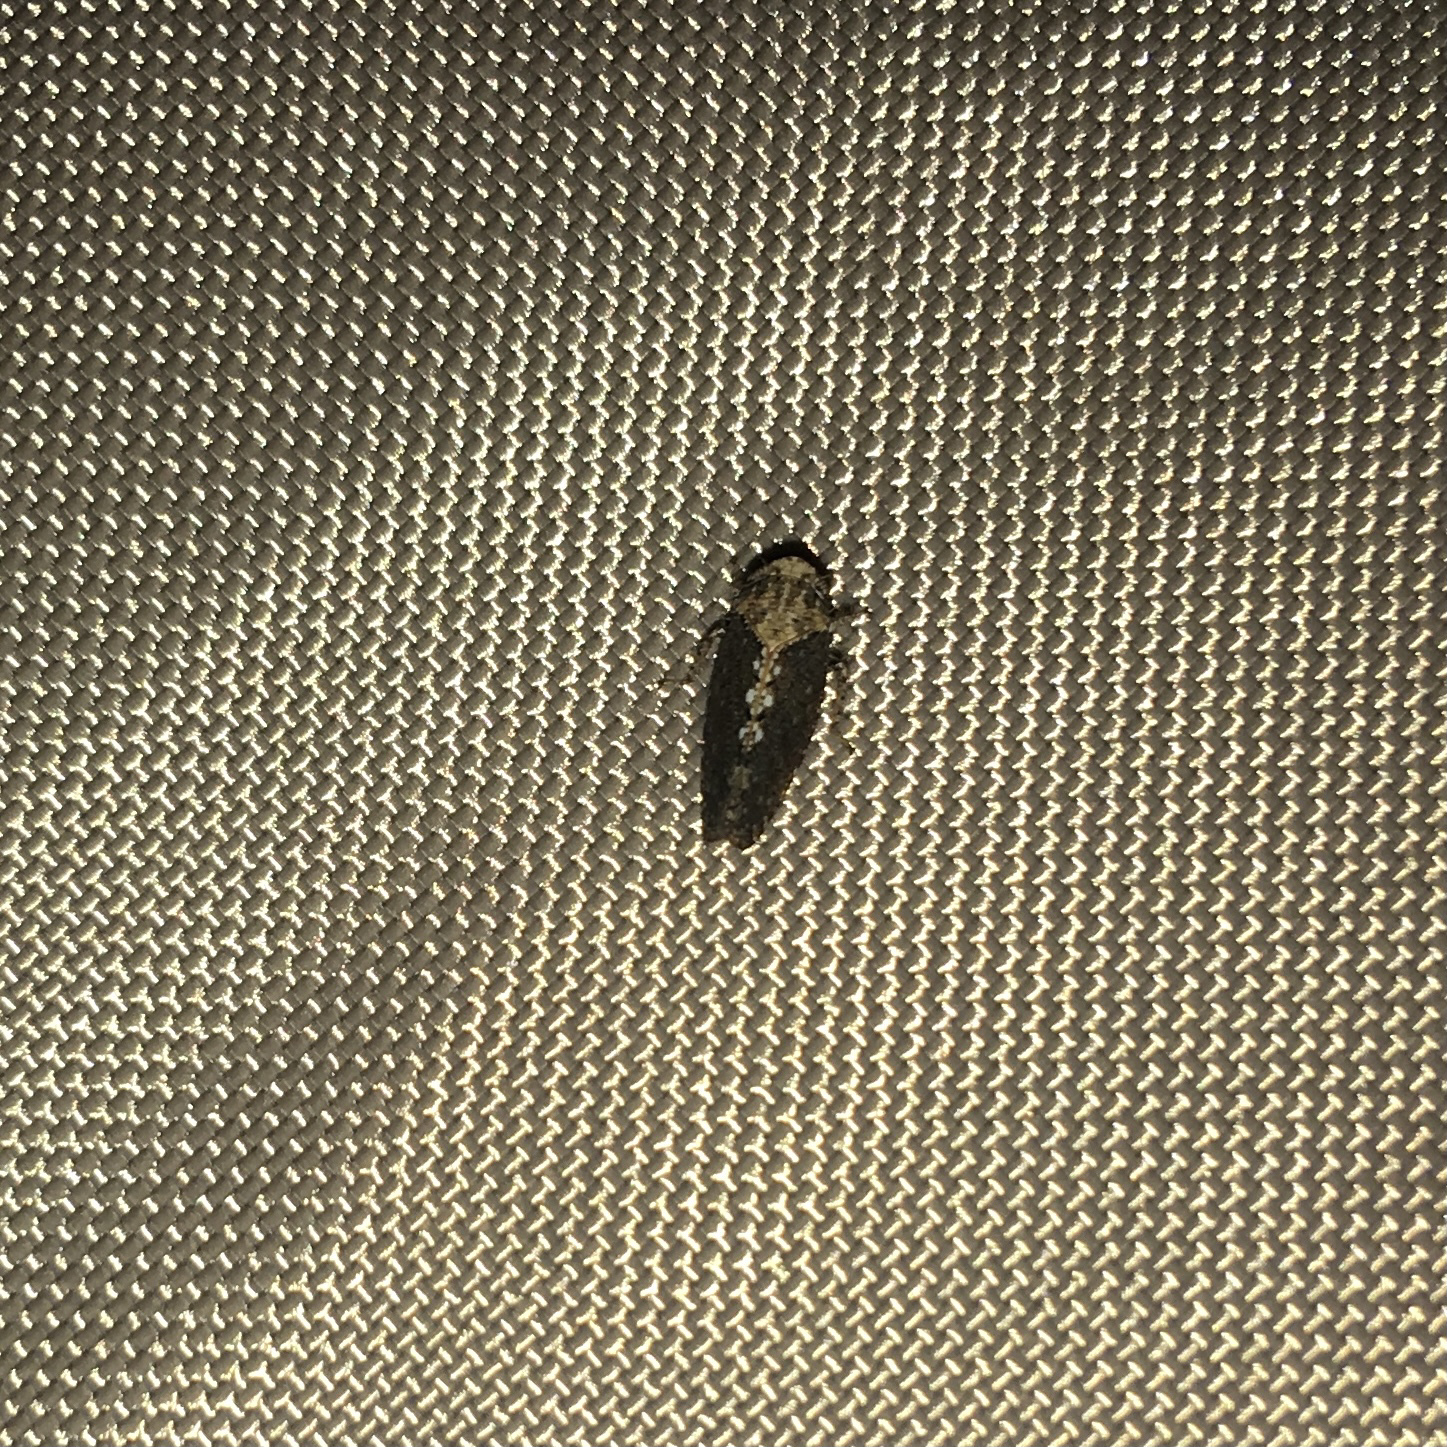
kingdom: Animalia
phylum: Arthropoda
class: Insecta
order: Hemiptera
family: Cicadellidae
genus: Excultanus
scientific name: Excultanus excultus
